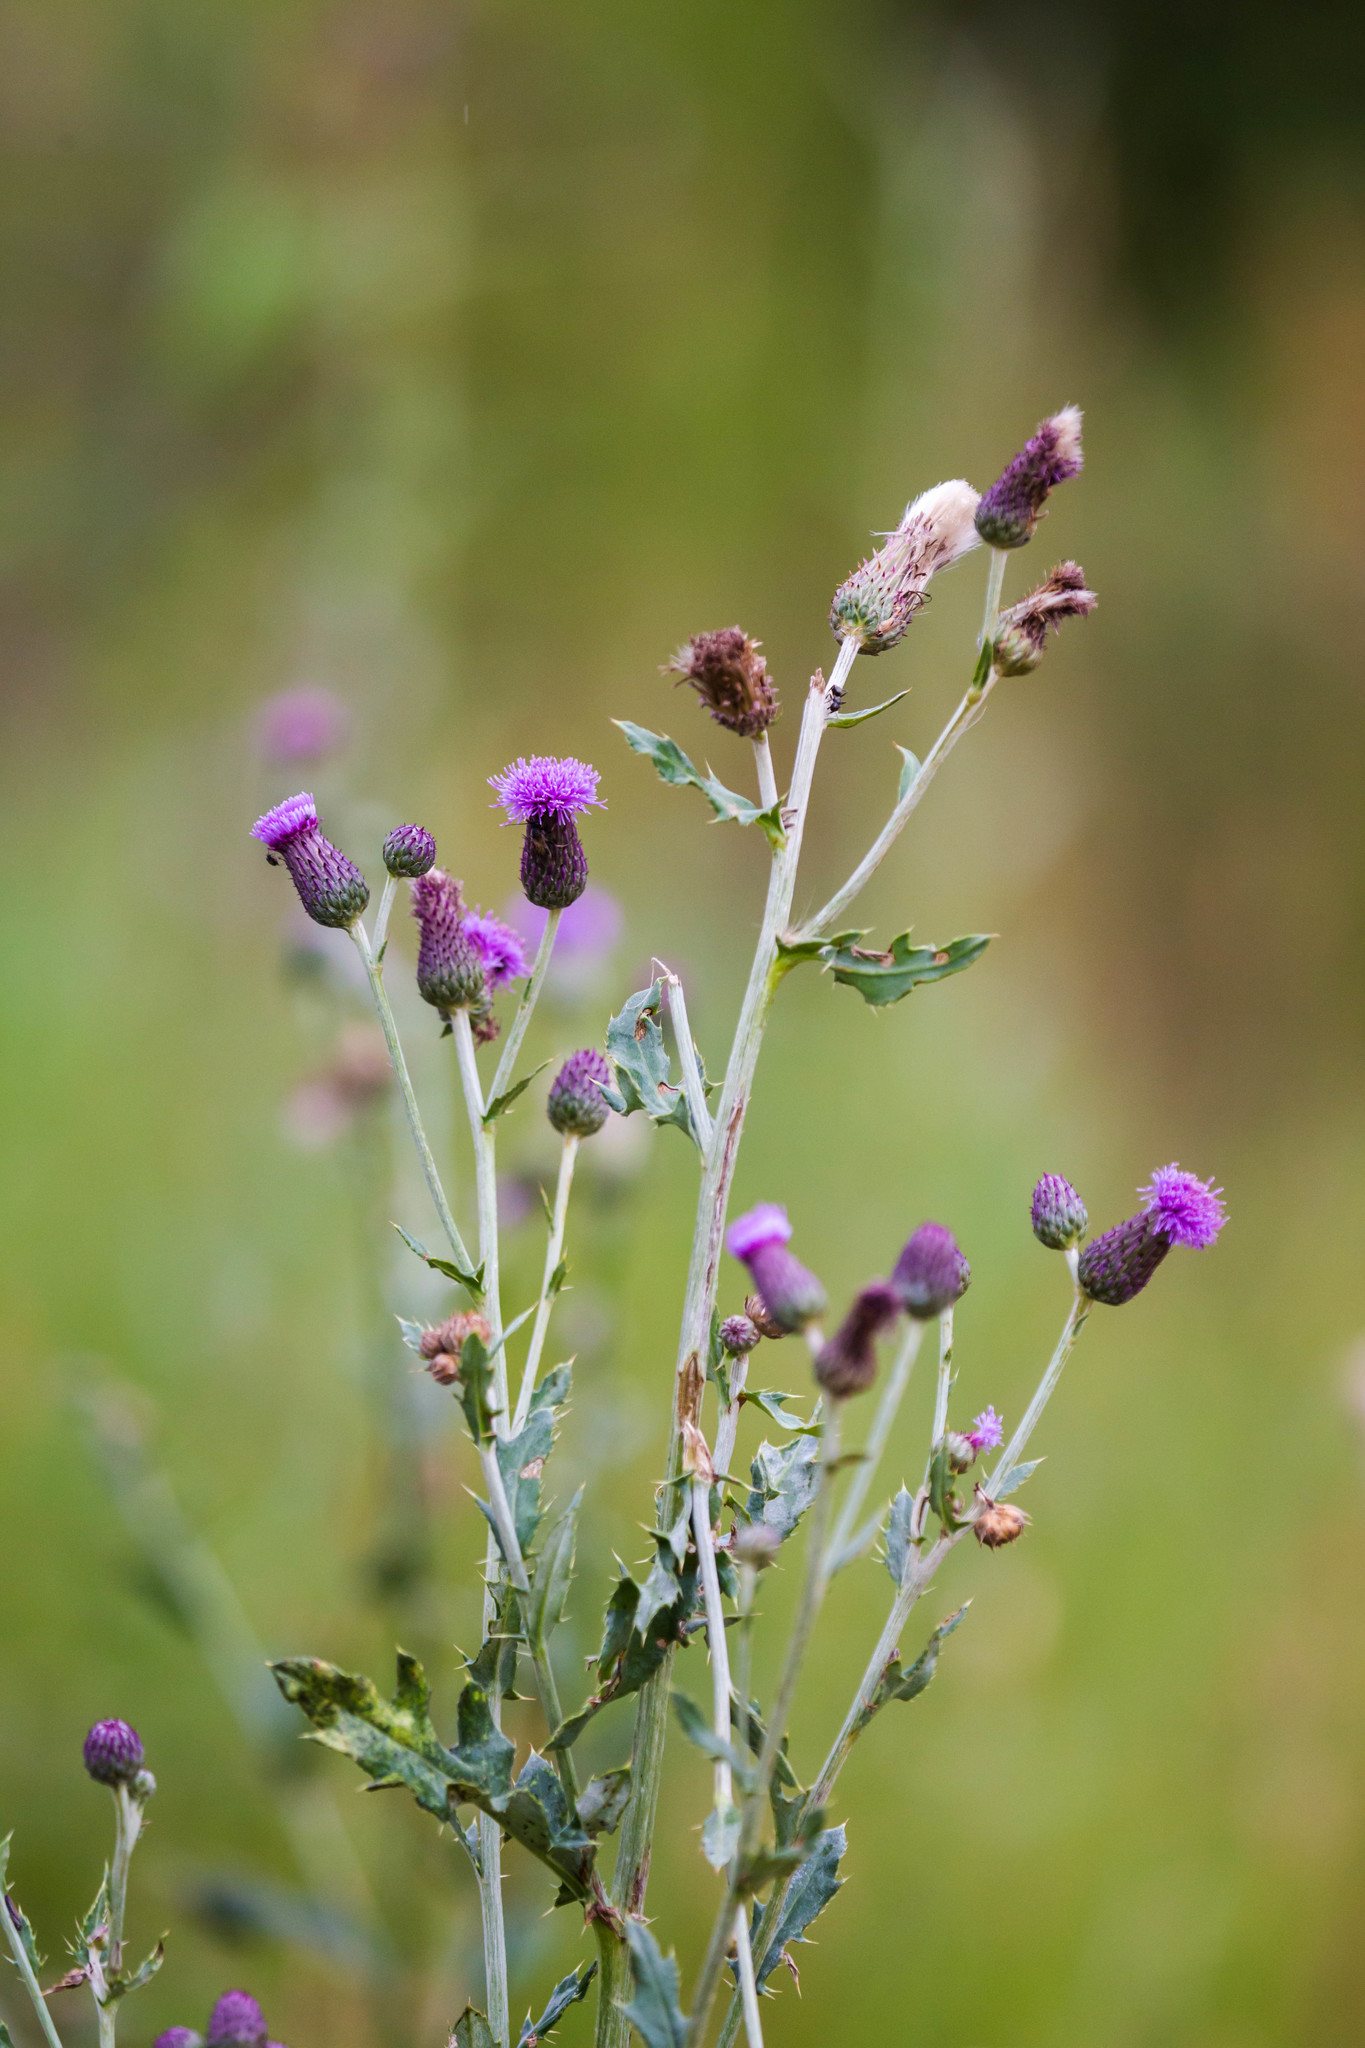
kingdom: Plantae
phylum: Tracheophyta
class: Magnoliopsida
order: Asterales
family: Asteraceae
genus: Cirsium
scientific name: Cirsium arvense
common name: Creeping thistle
